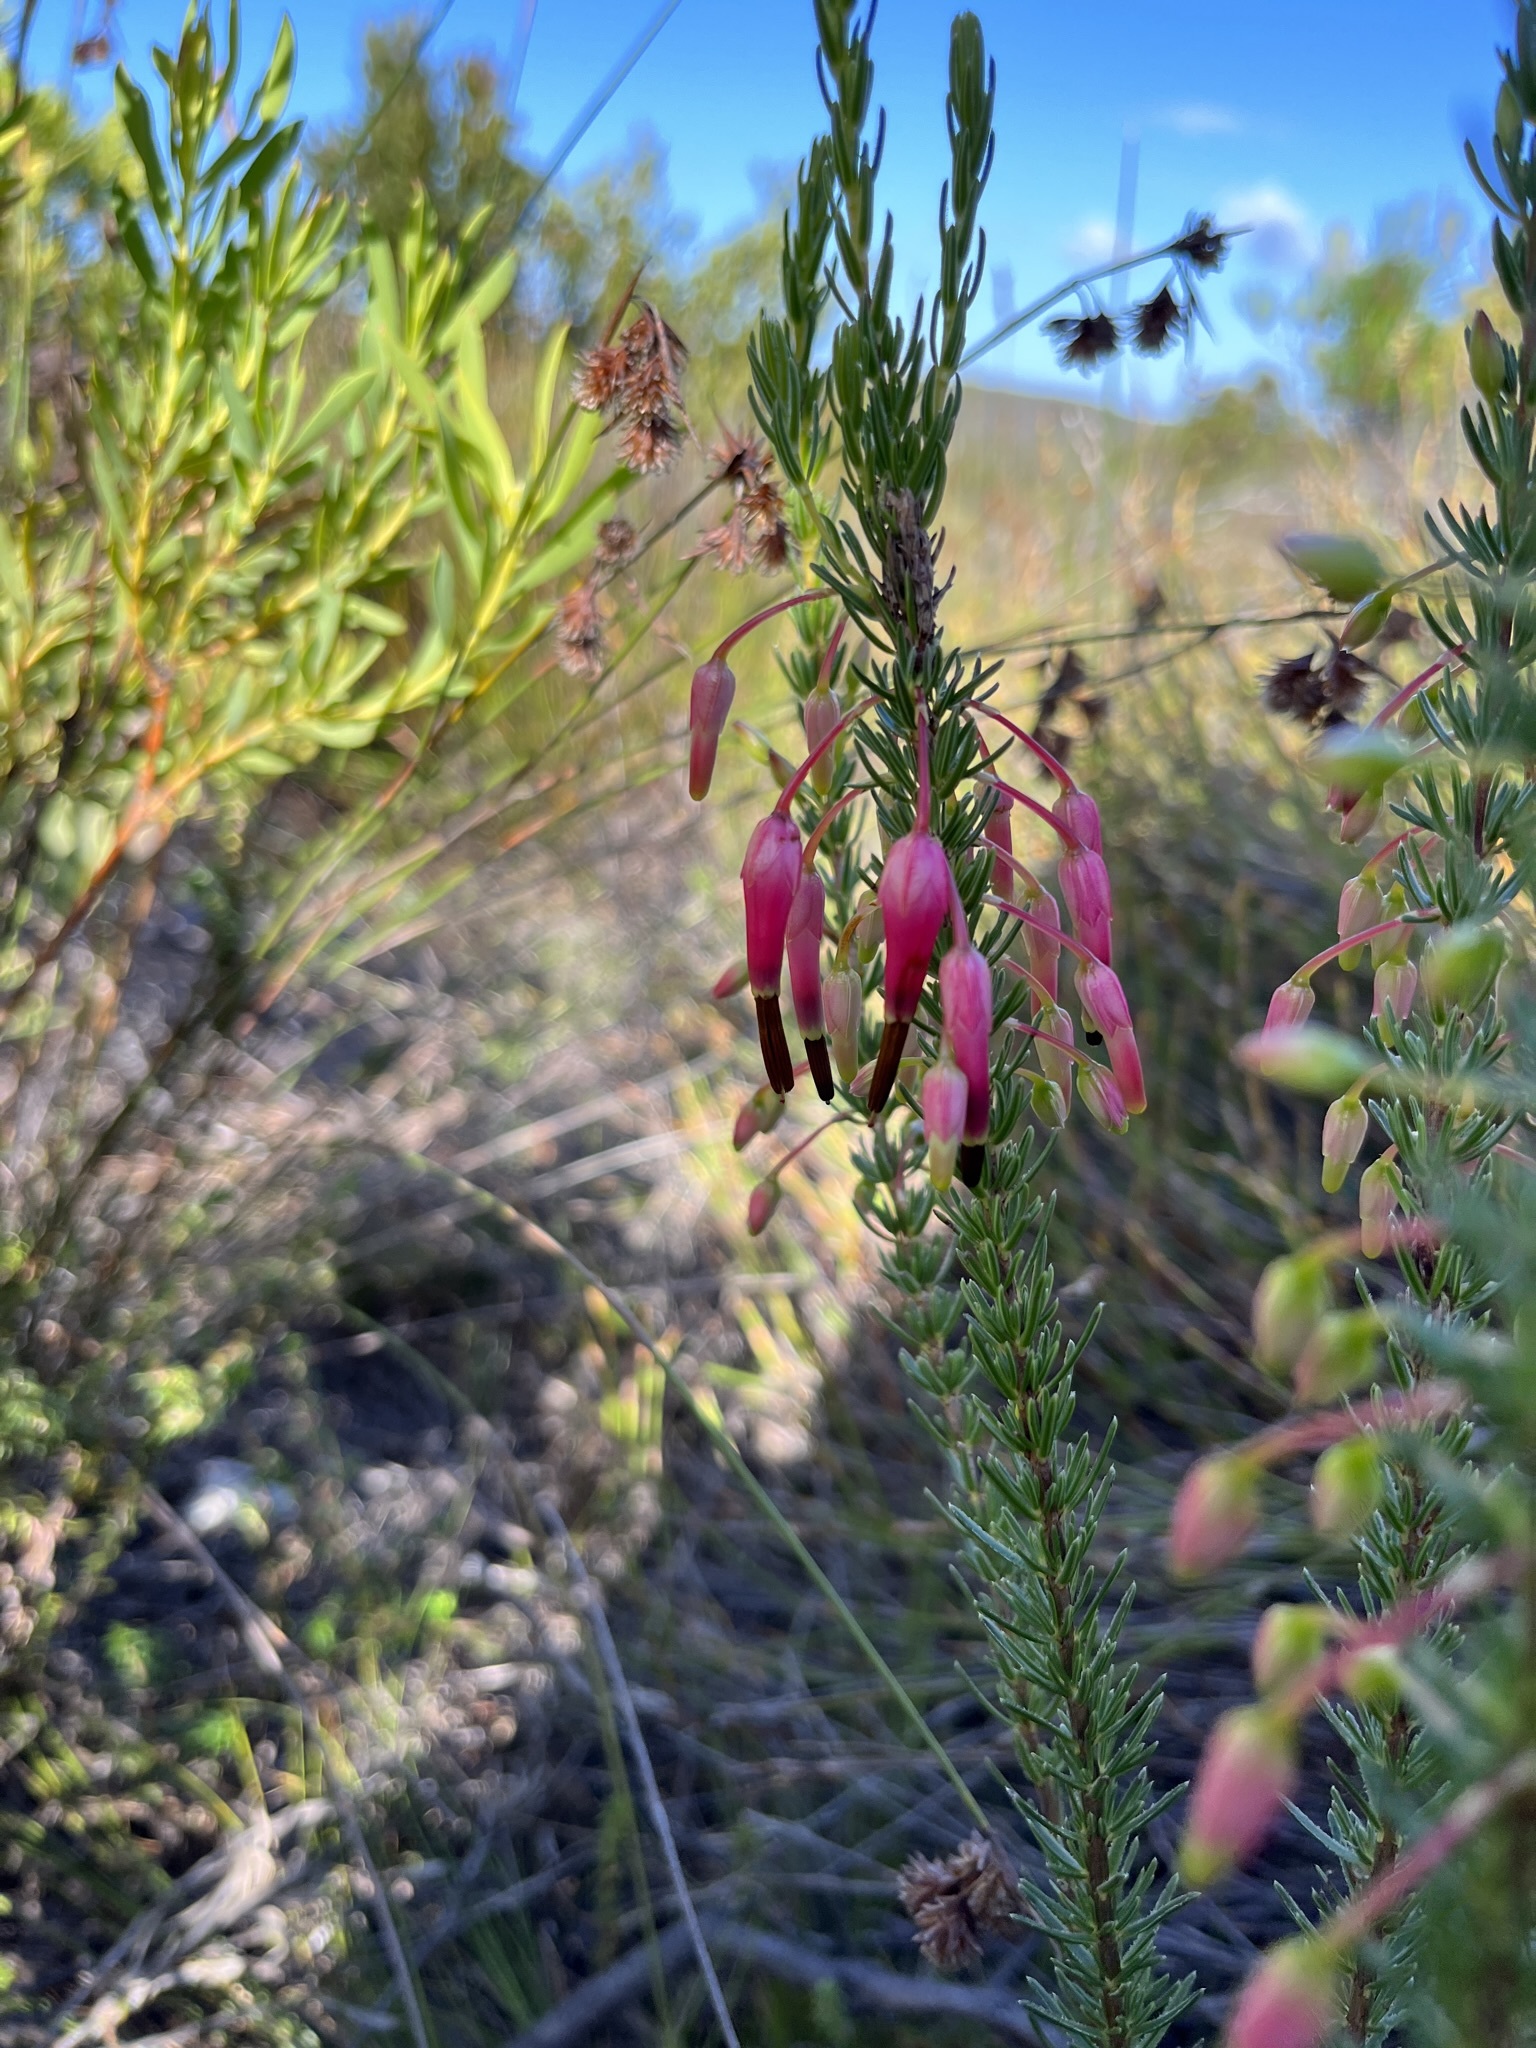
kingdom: Plantae
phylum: Tracheophyta
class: Magnoliopsida
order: Ericales
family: Ericaceae
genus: Erica
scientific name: Erica plukenetii
